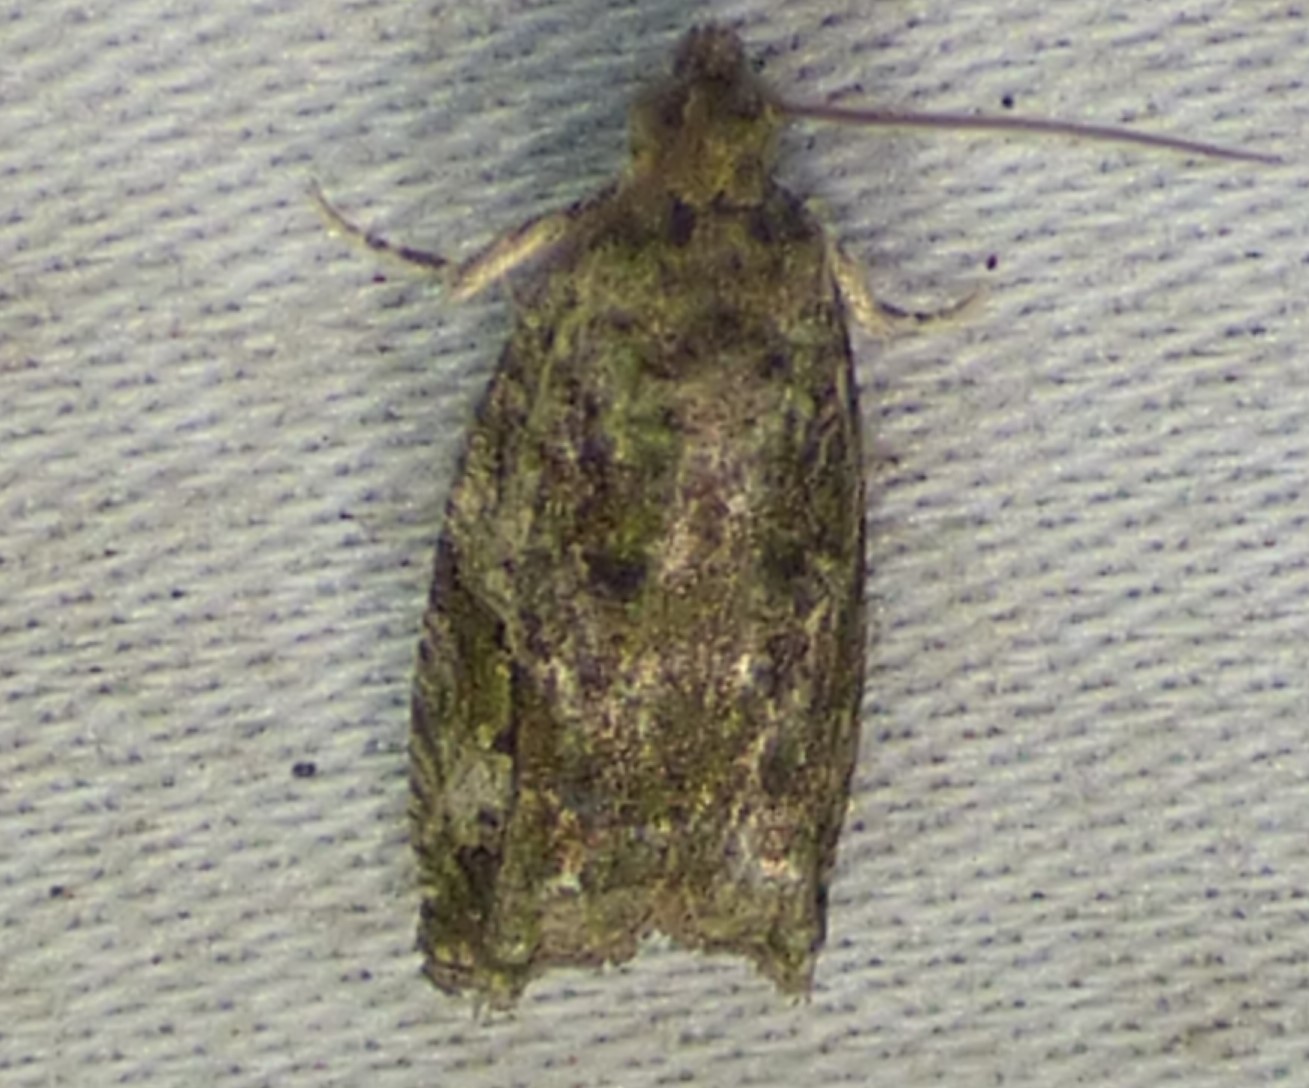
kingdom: Animalia
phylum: Arthropoda
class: Insecta
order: Lepidoptera
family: Tortricidae
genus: Proteoteras
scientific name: Proteoteras aesculana
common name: Maple twig borer moth
